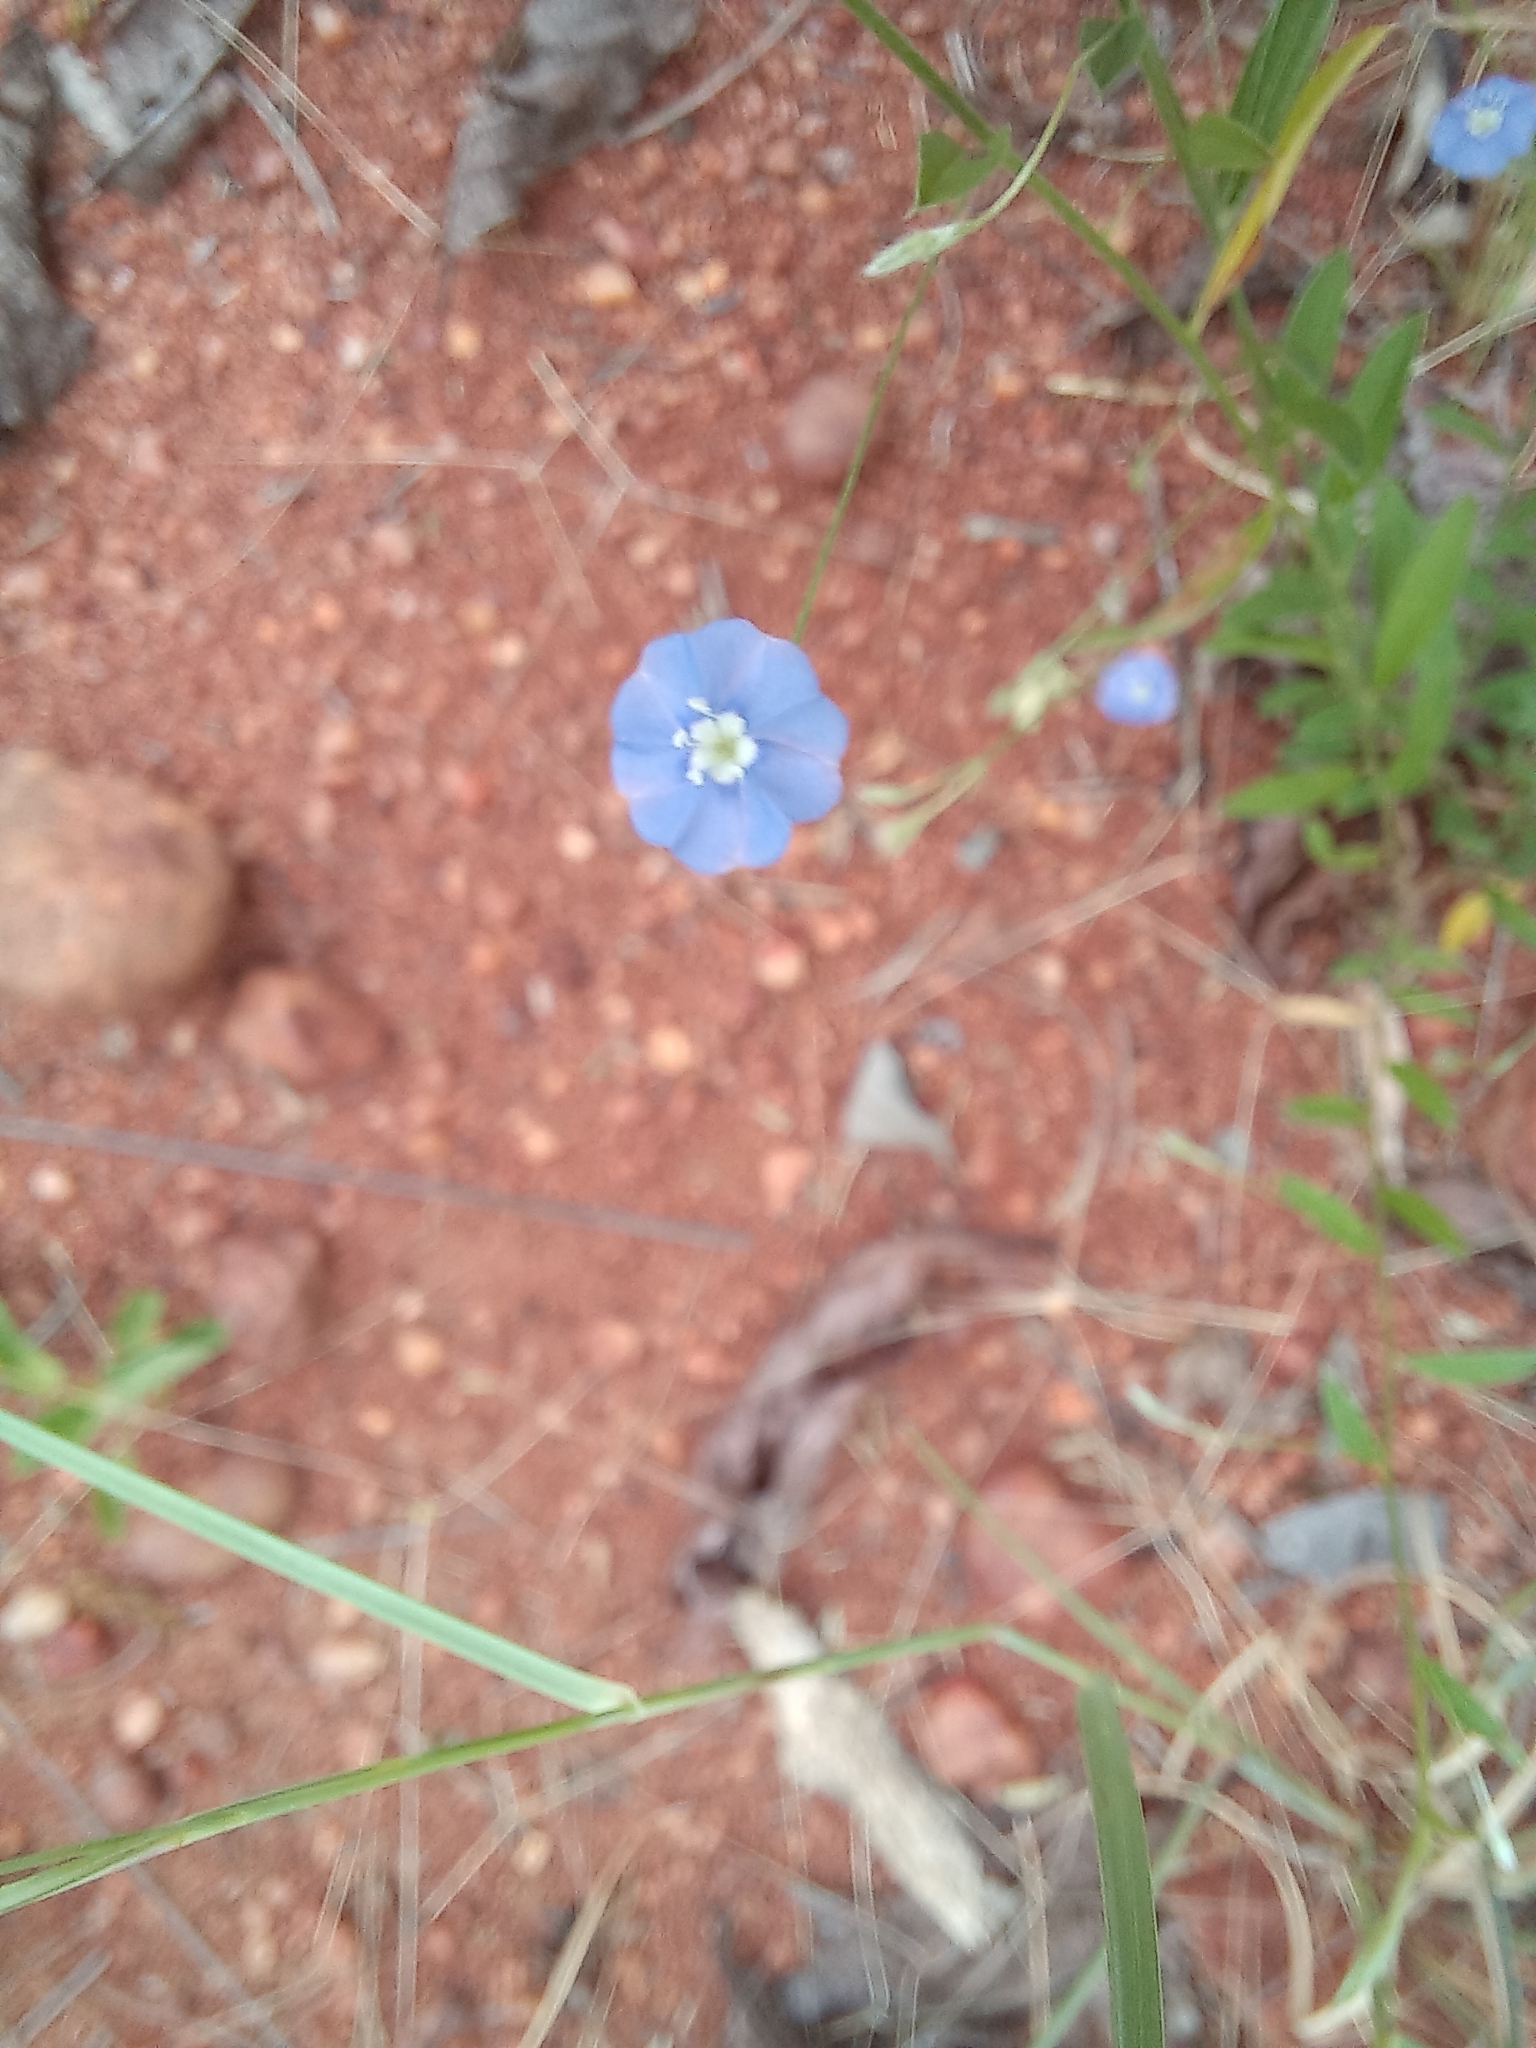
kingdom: Plantae
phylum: Tracheophyta
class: Magnoliopsida
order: Solanales
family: Convolvulaceae
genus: Evolvulus
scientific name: Evolvulus alsinoides
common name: Slender dwarf morning-glory
